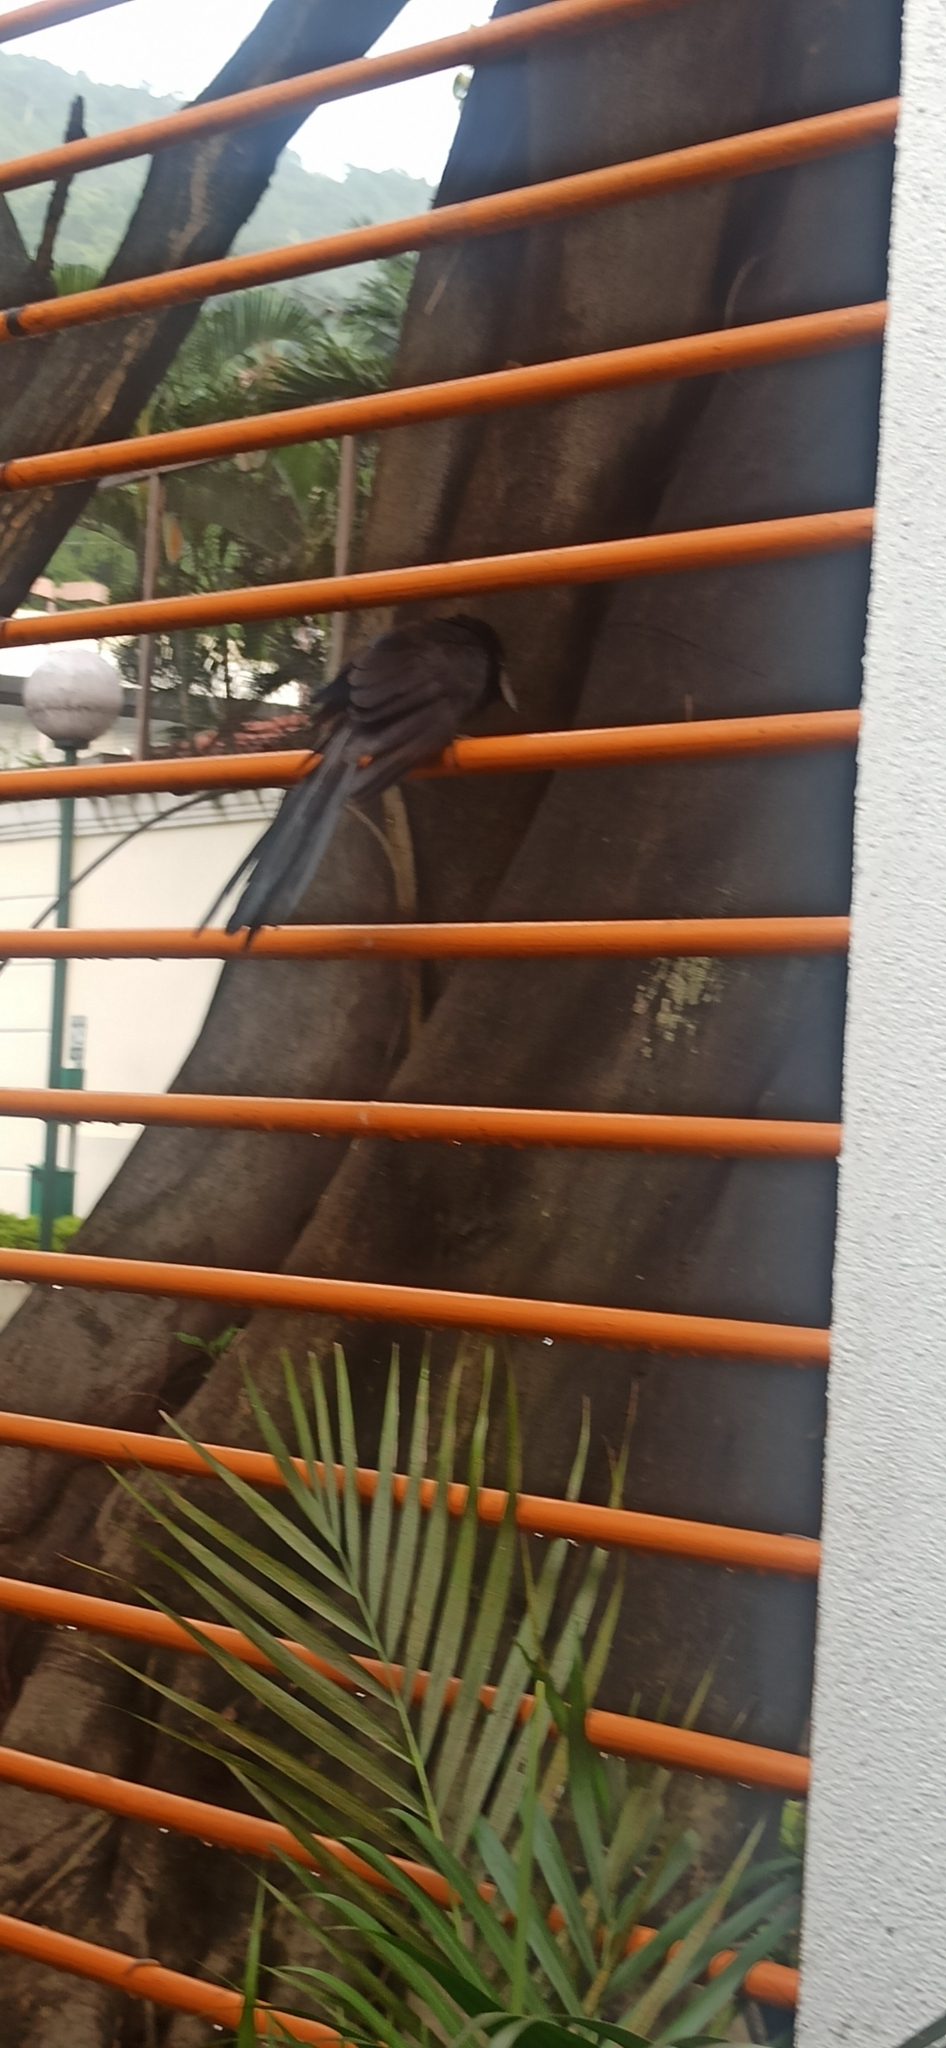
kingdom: Animalia
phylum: Chordata
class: Aves
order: Cuculiformes
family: Cuculidae
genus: Crotophaga
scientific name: Crotophaga sulcirostris
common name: Groove-billed ani
